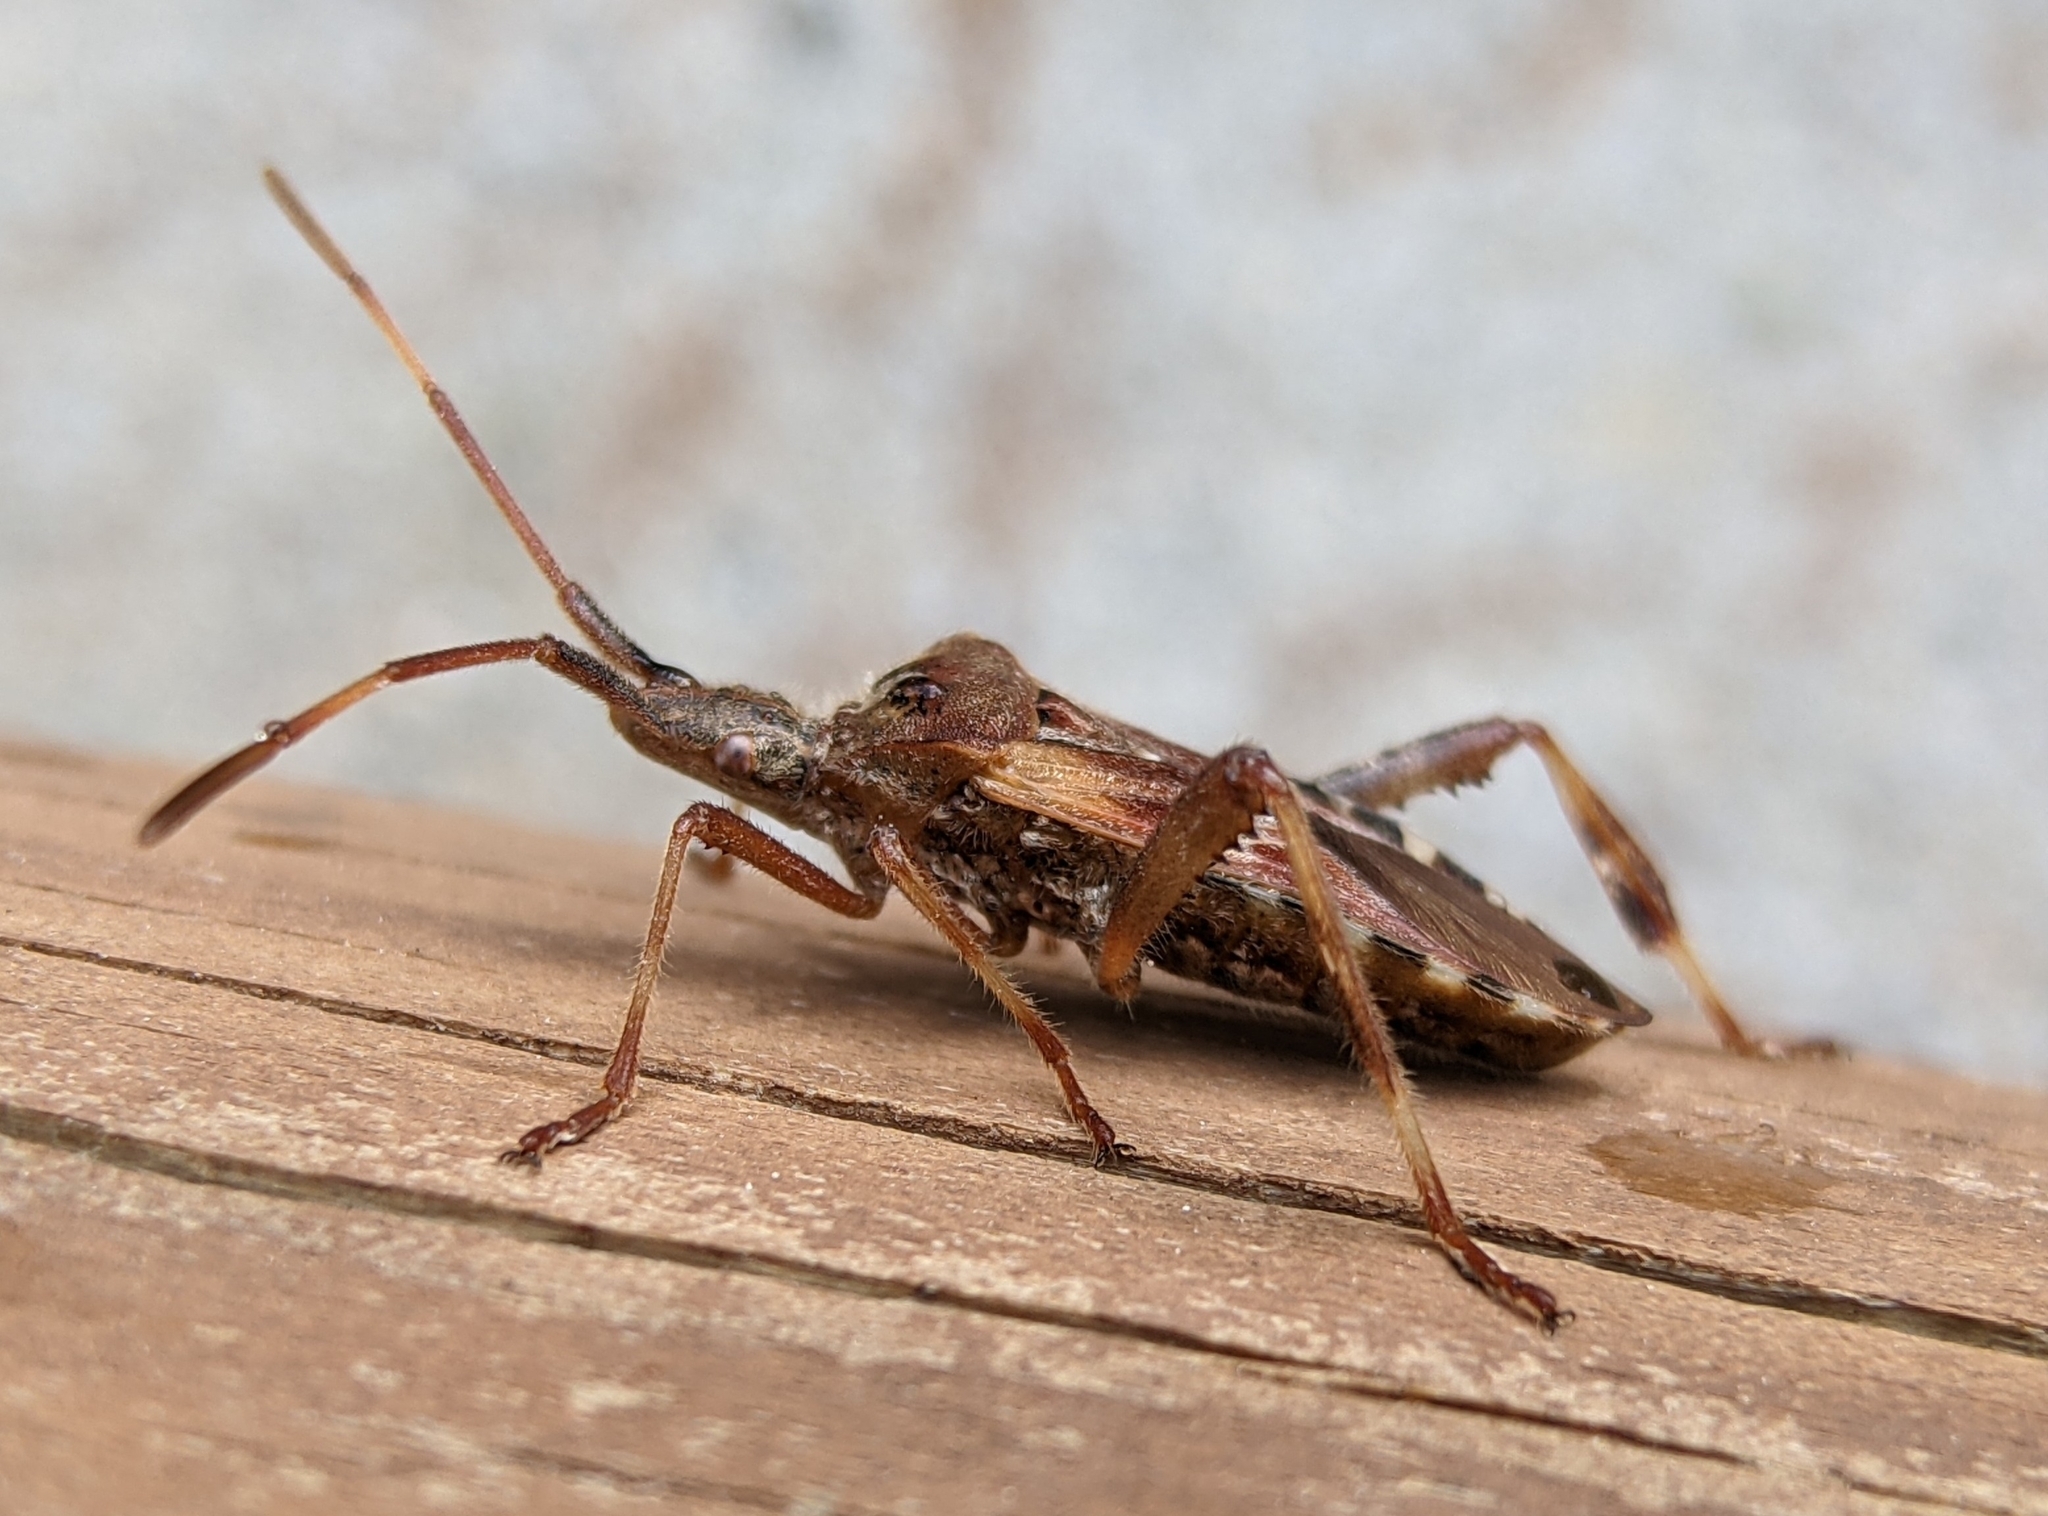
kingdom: Animalia
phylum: Arthropoda
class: Insecta
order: Hemiptera
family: Coreidae
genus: Leptoglossus
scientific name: Leptoglossus occidentalis
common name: Western conifer-seed bug
